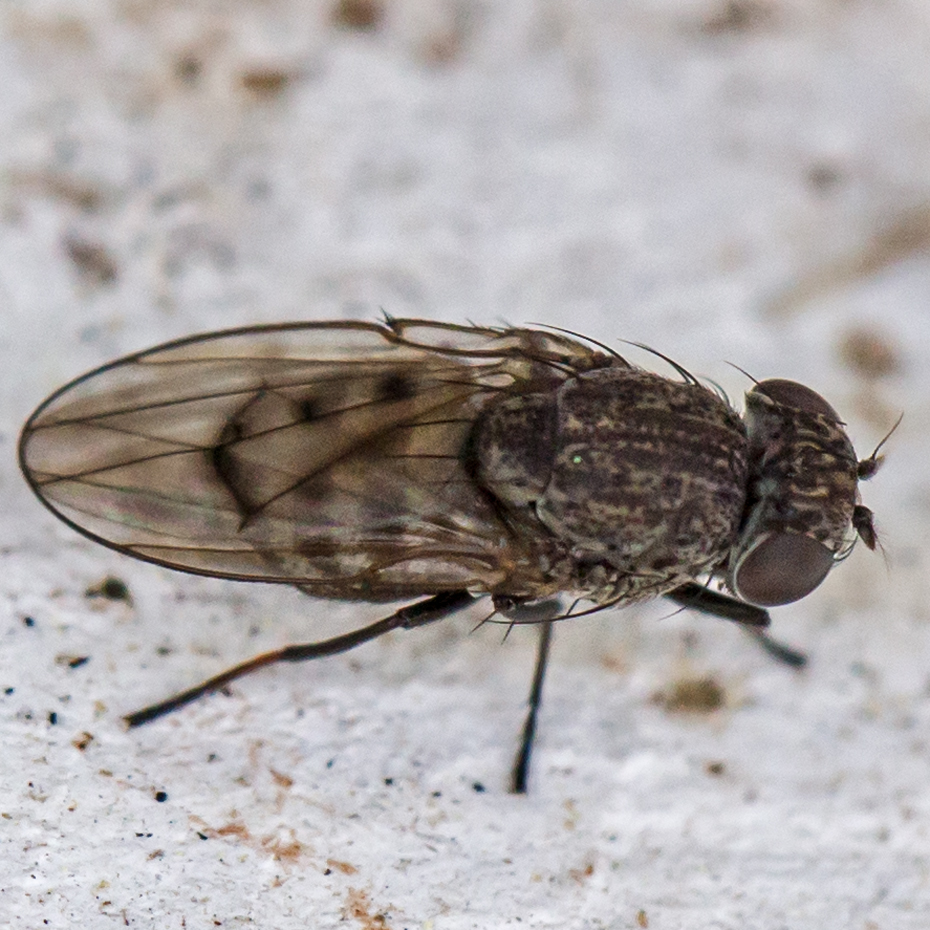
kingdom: Animalia
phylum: Arthropoda
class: Insecta
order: Diptera
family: Ephydridae
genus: Paralimna
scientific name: Paralimna punctipennis
